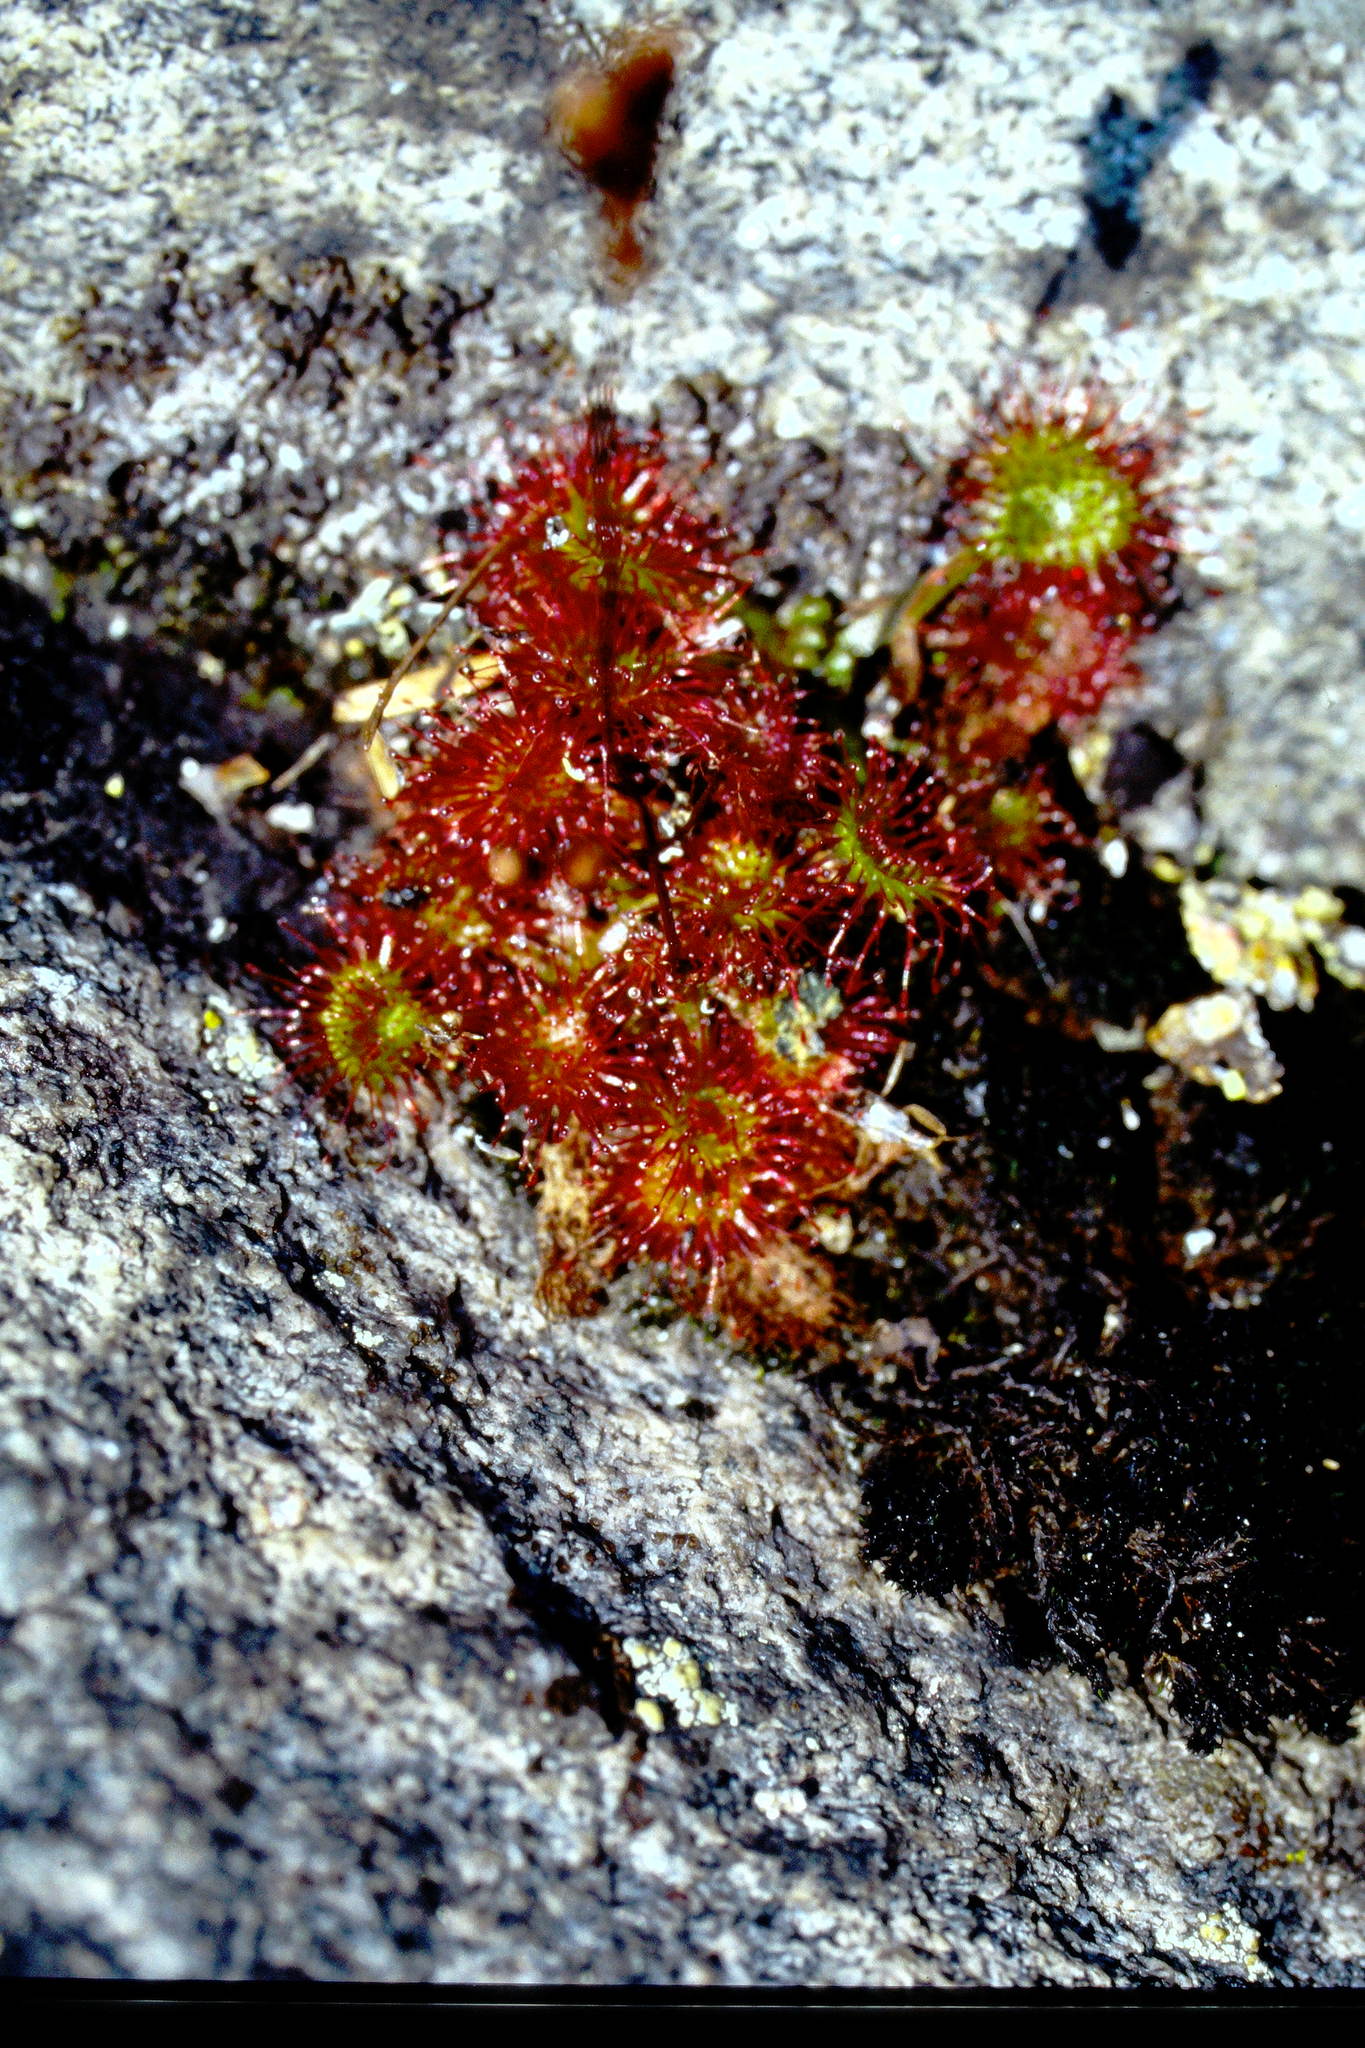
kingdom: Plantae
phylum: Tracheophyta
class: Magnoliopsida
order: Caryophyllales
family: Droseraceae
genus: Drosera
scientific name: Drosera rotundifolia
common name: Round-leaved sundew
